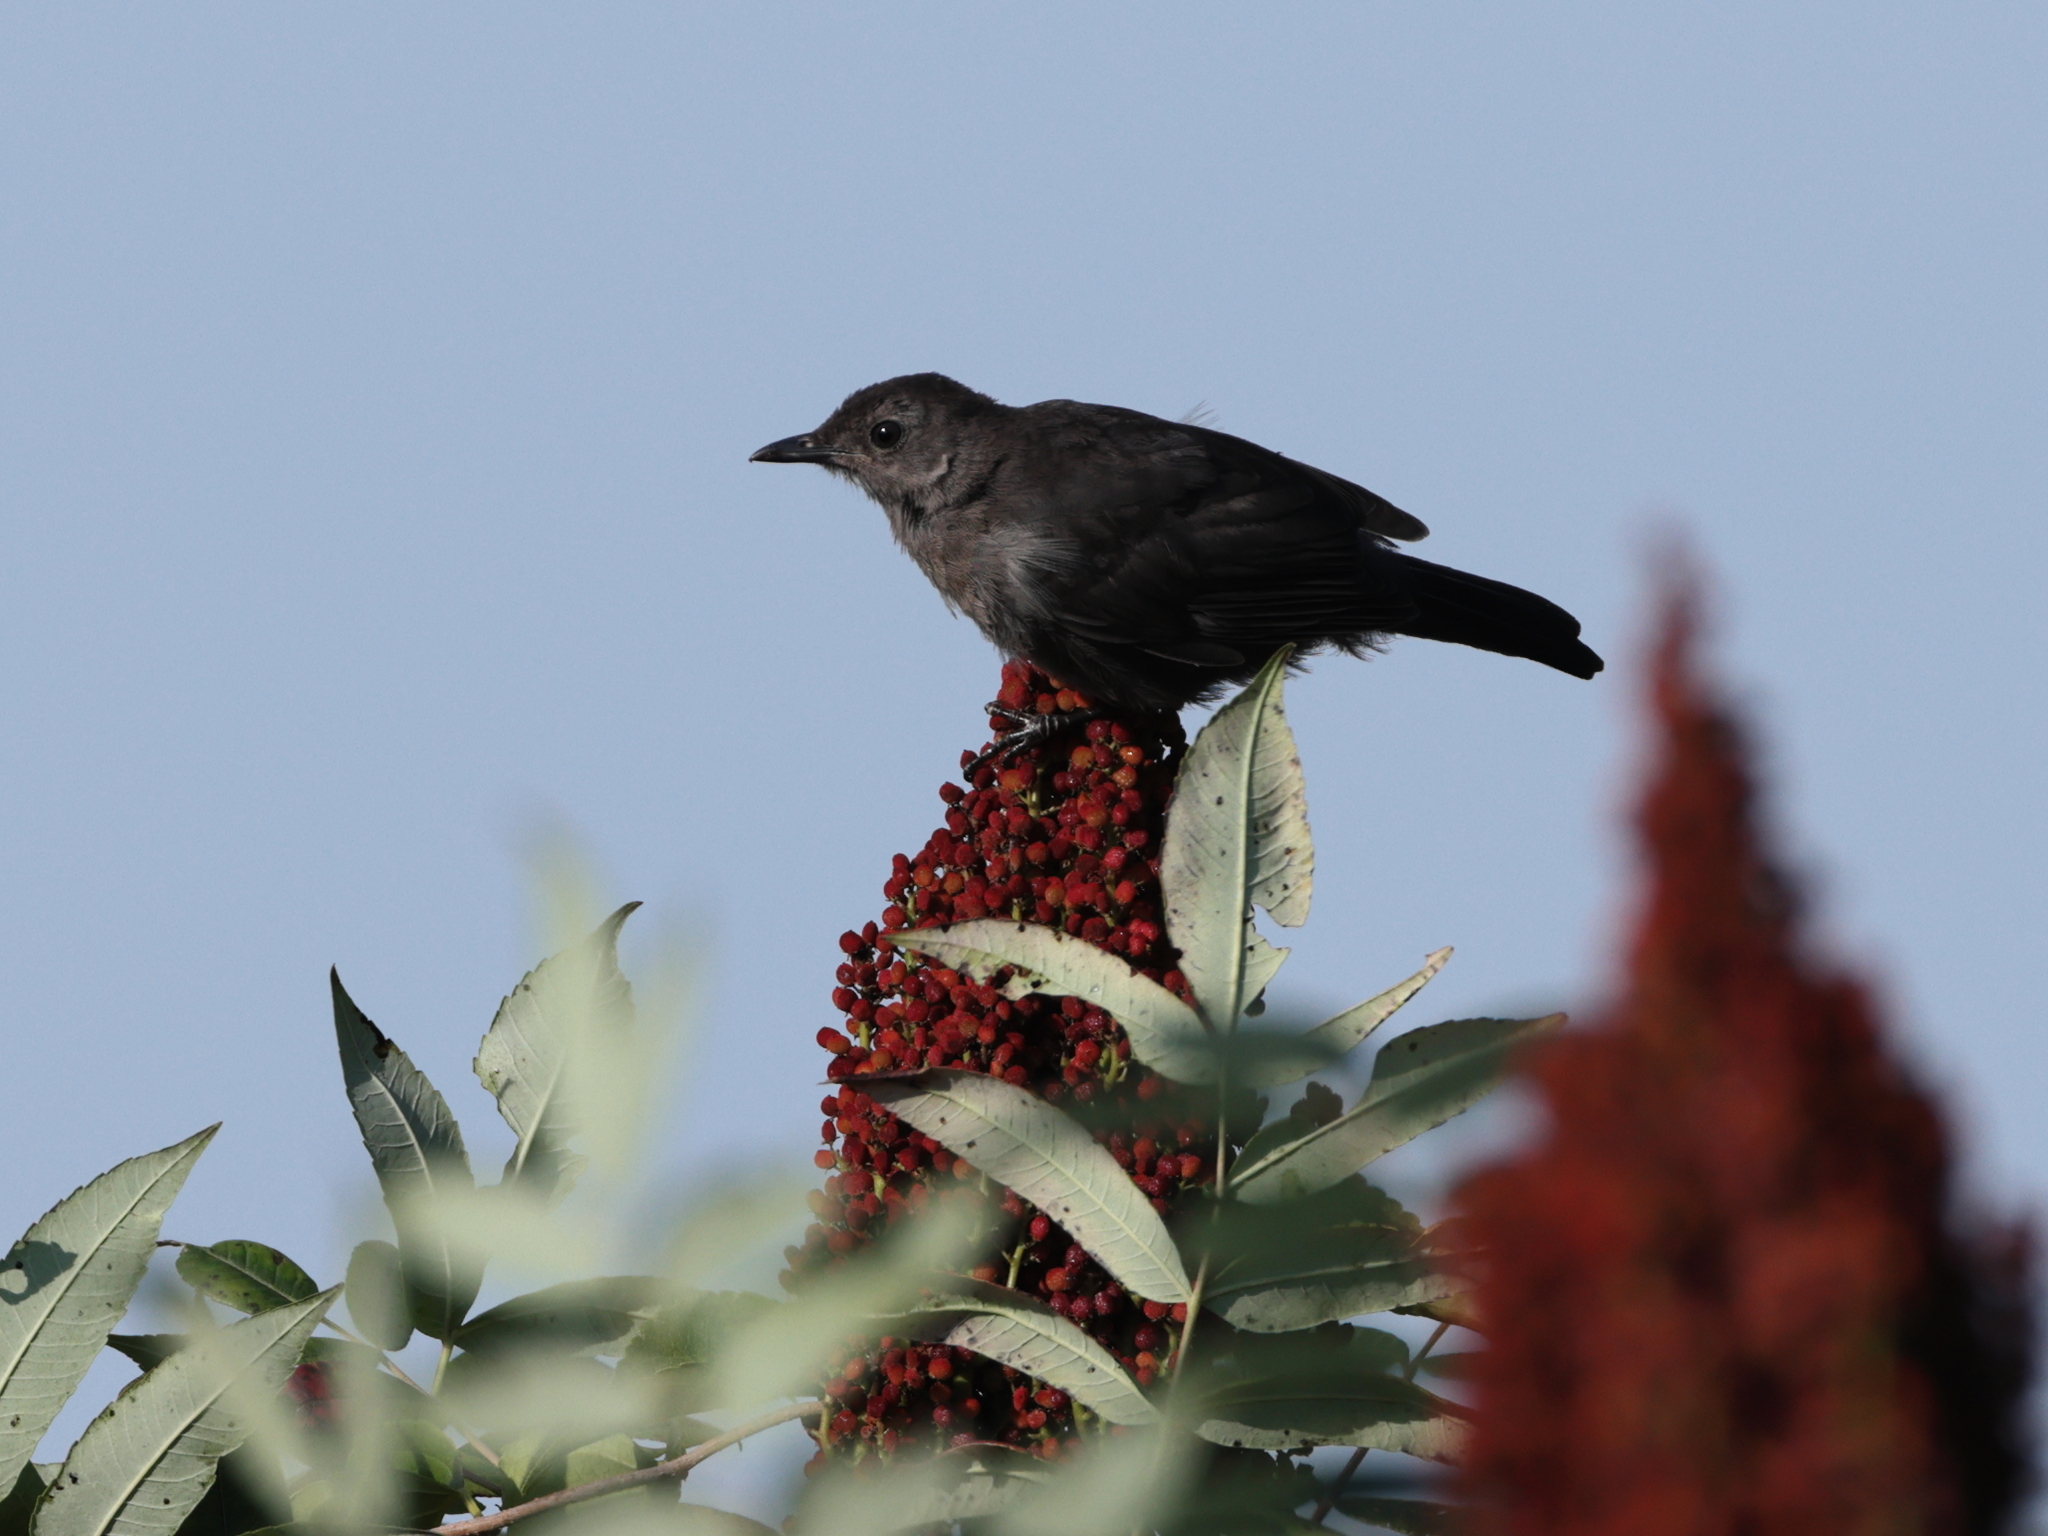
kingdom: Animalia
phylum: Chordata
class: Aves
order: Passeriformes
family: Mimidae
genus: Dumetella
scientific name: Dumetella carolinensis
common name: Gray catbird
